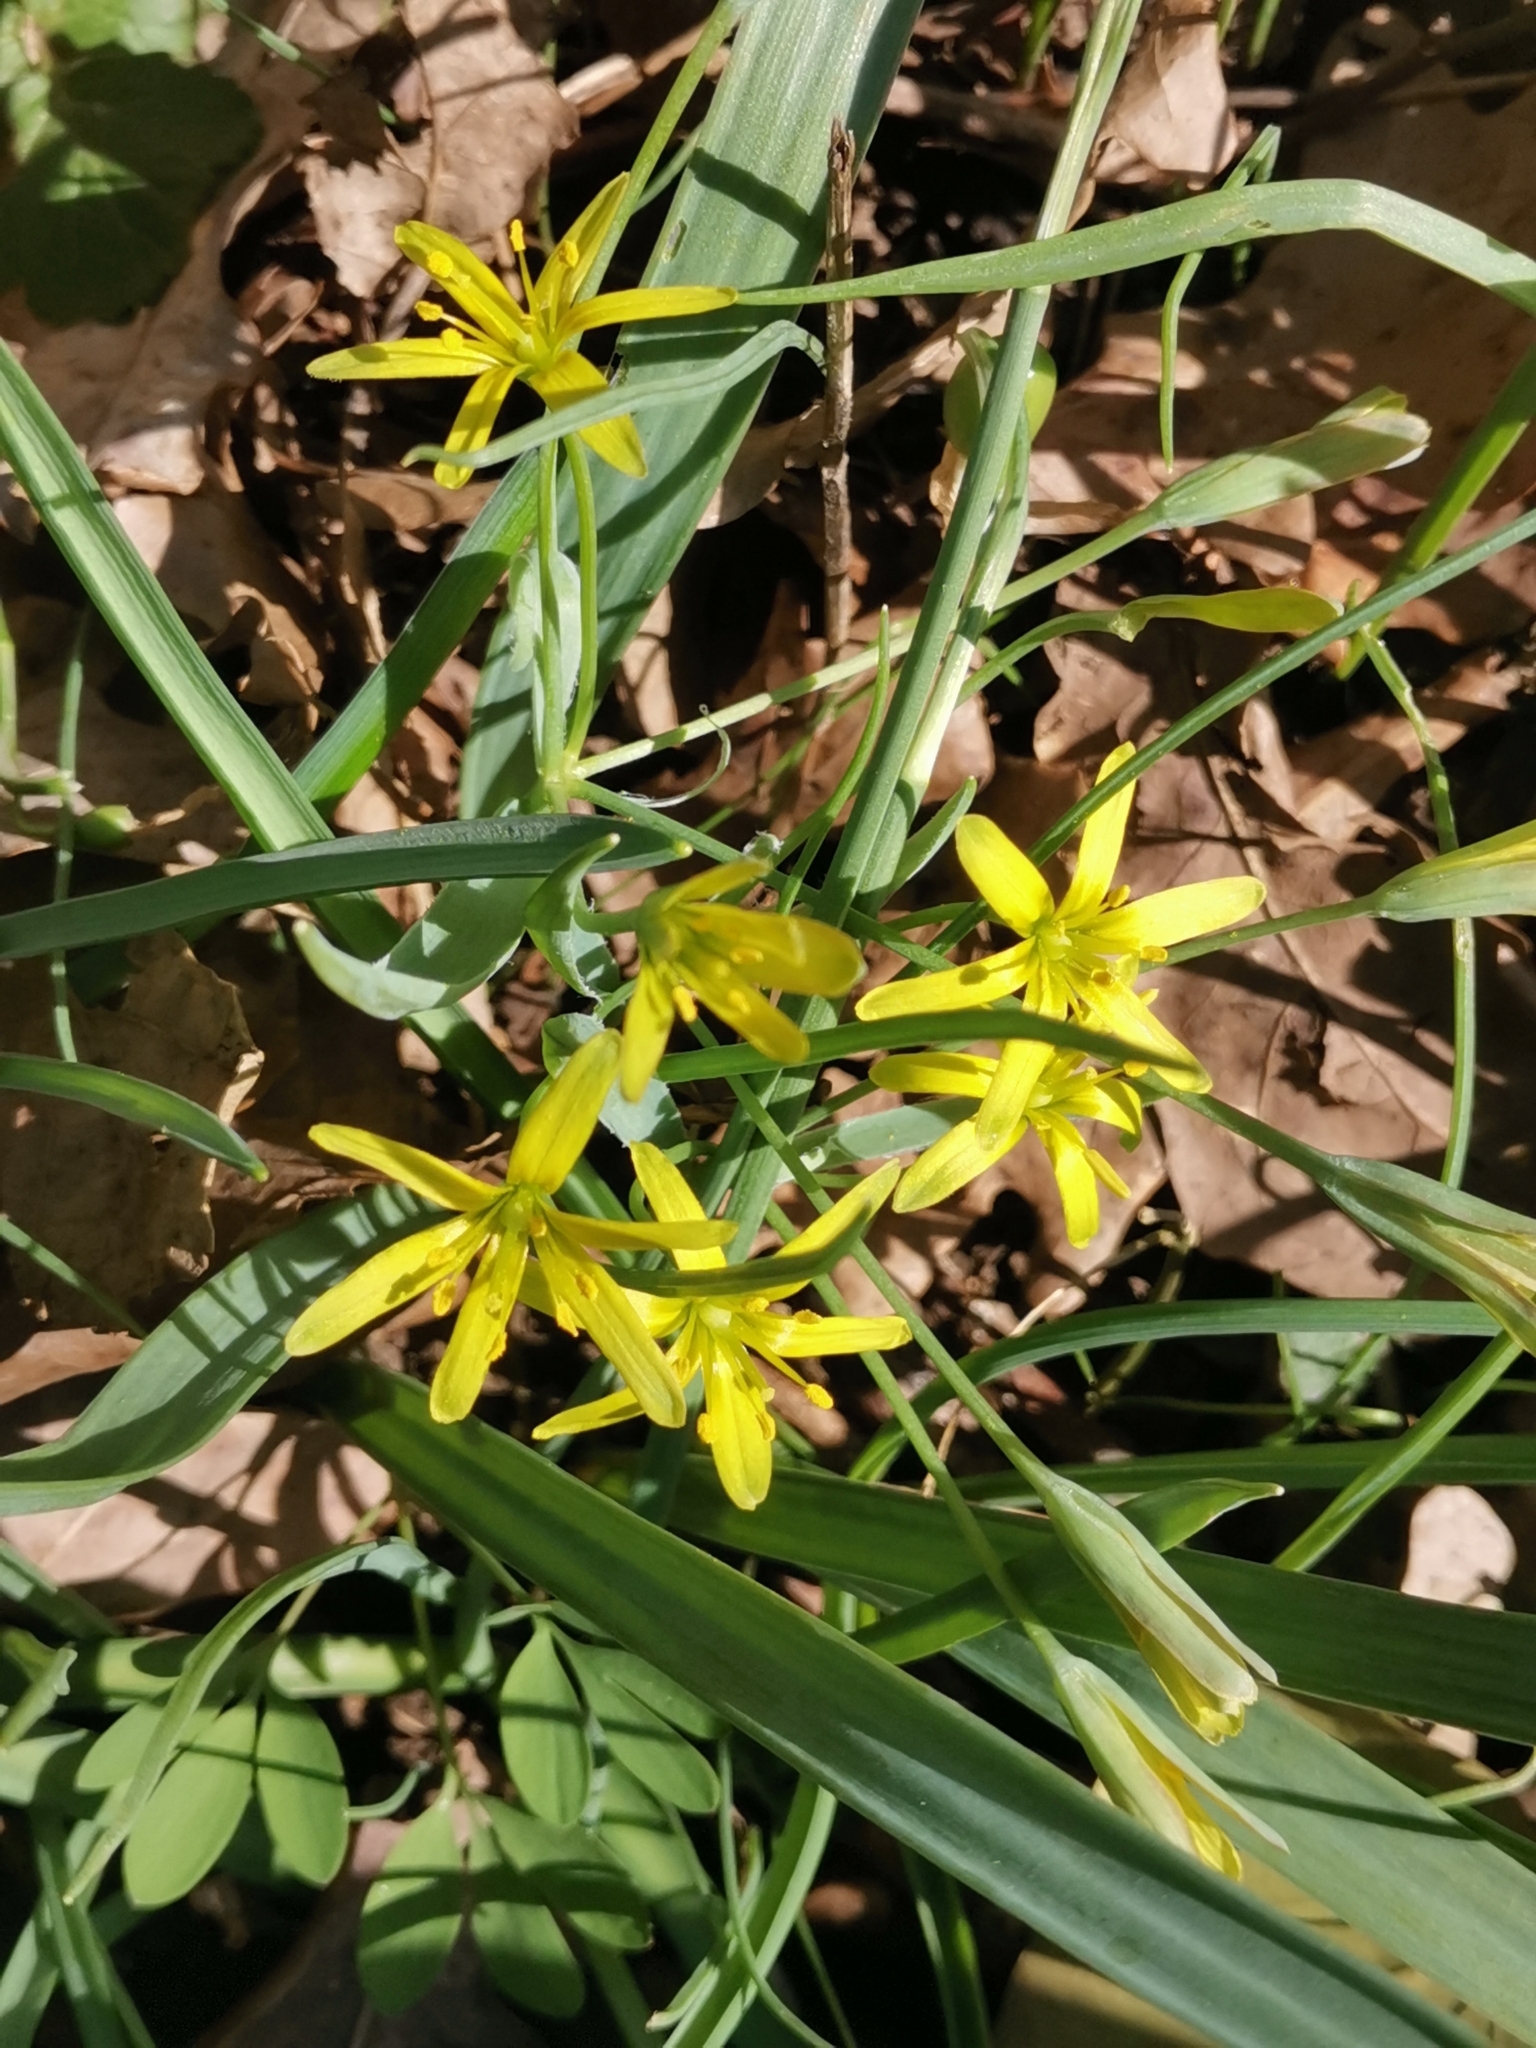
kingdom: Plantae
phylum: Tracheophyta
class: Liliopsida
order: Liliales
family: Liliaceae
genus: Gagea
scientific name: Gagea lutea
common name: Yellow star-of-bethlehem
